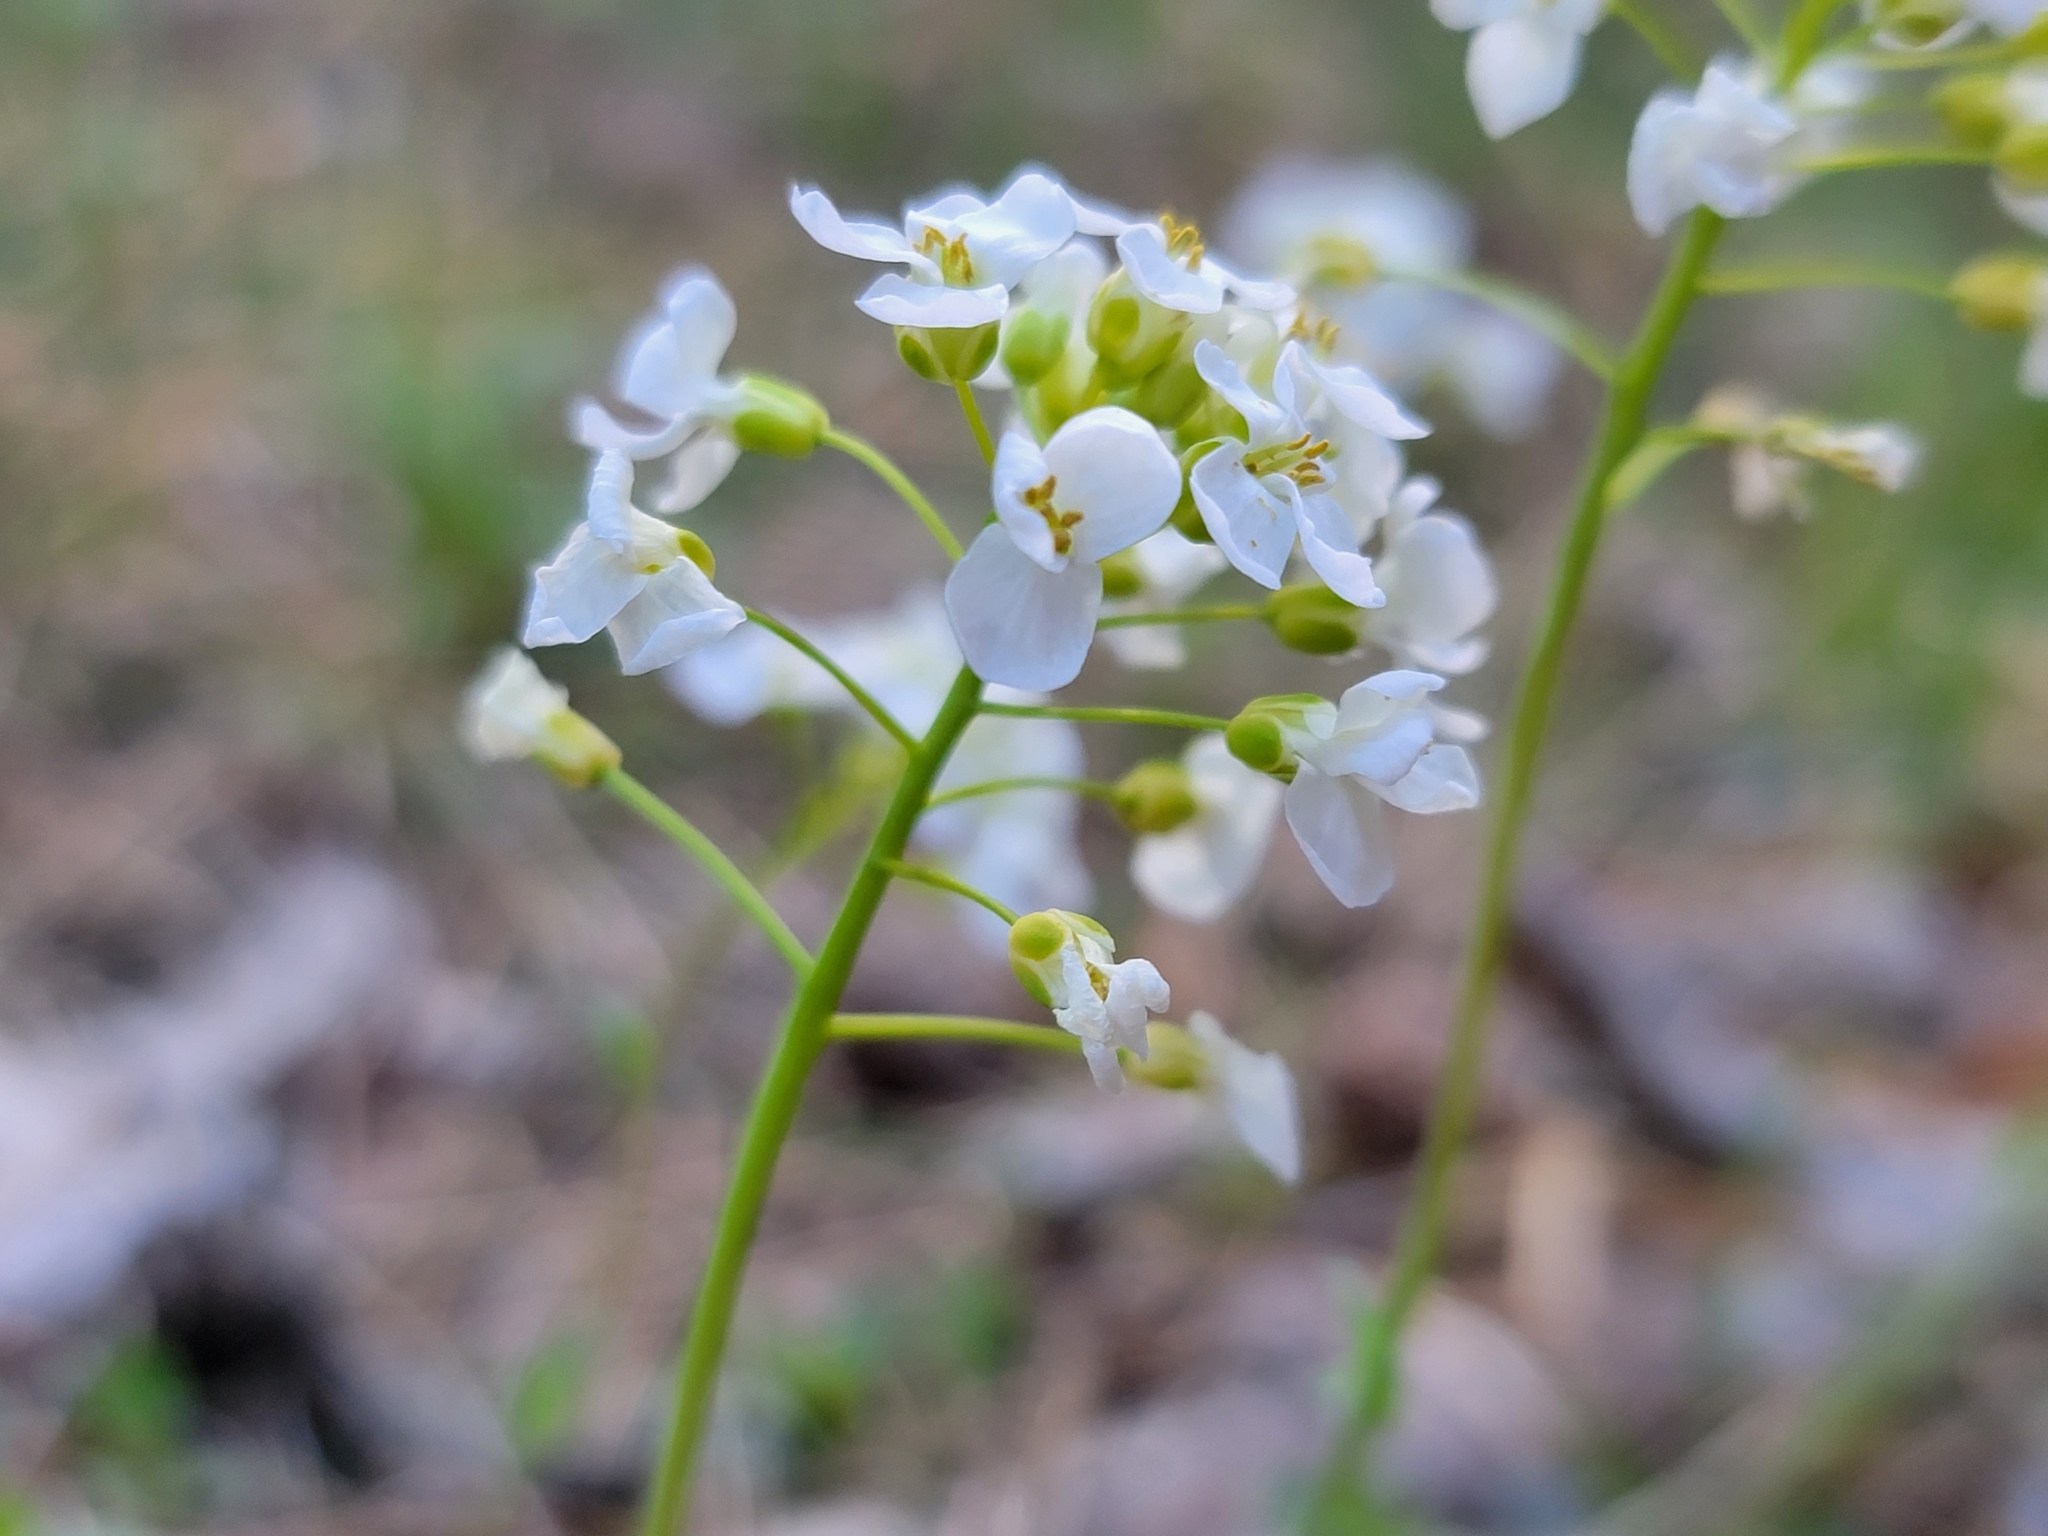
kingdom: Plantae
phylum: Tracheophyta
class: Magnoliopsida
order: Brassicales
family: Brassicaceae
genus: Noccaea
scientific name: Noccaea montana
